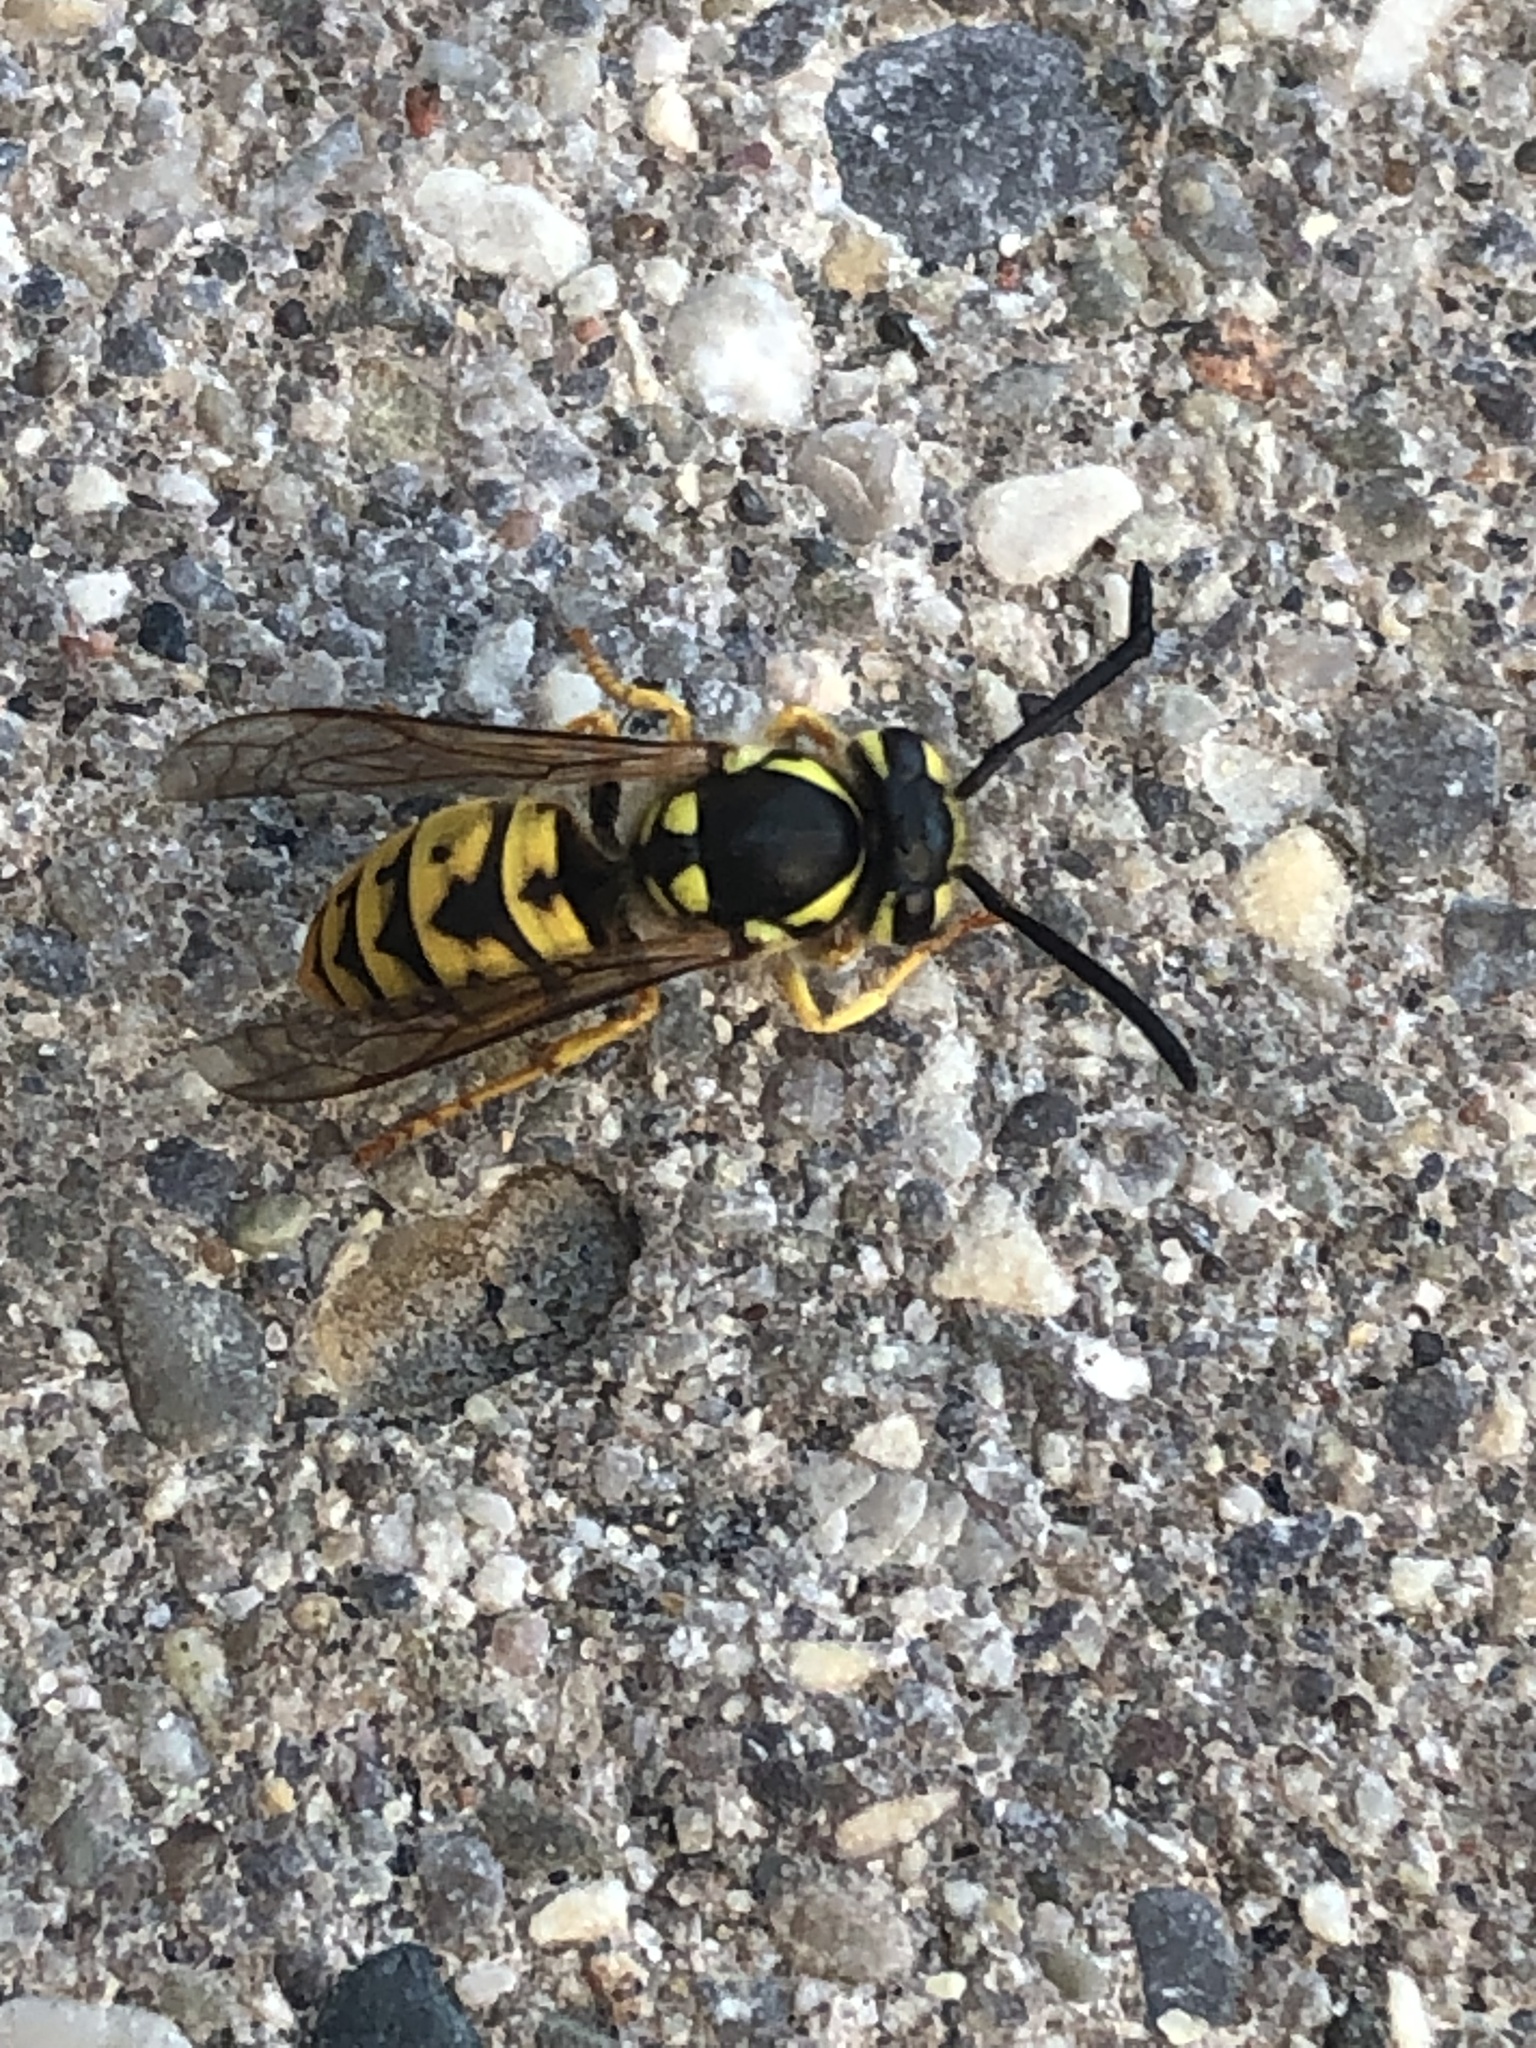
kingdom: Animalia
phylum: Arthropoda
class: Insecta
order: Hymenoptera
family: Vespidae
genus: Vespula
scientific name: Vespula germanica
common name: German wasp
